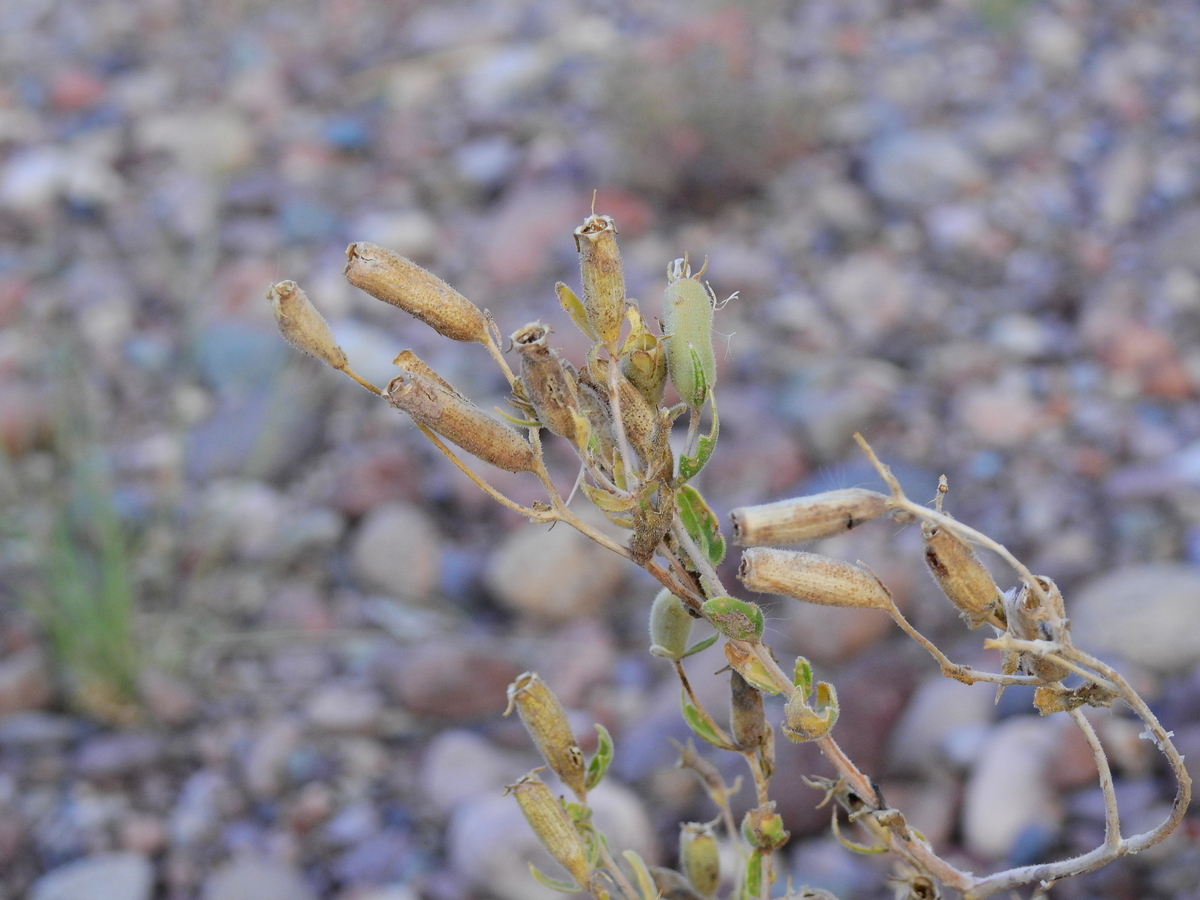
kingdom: Plantae
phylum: Tracheophyta
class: Magnoliopsida
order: Cornales
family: Loasaceae
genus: Mentzelia
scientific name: Mentzelia albescens
